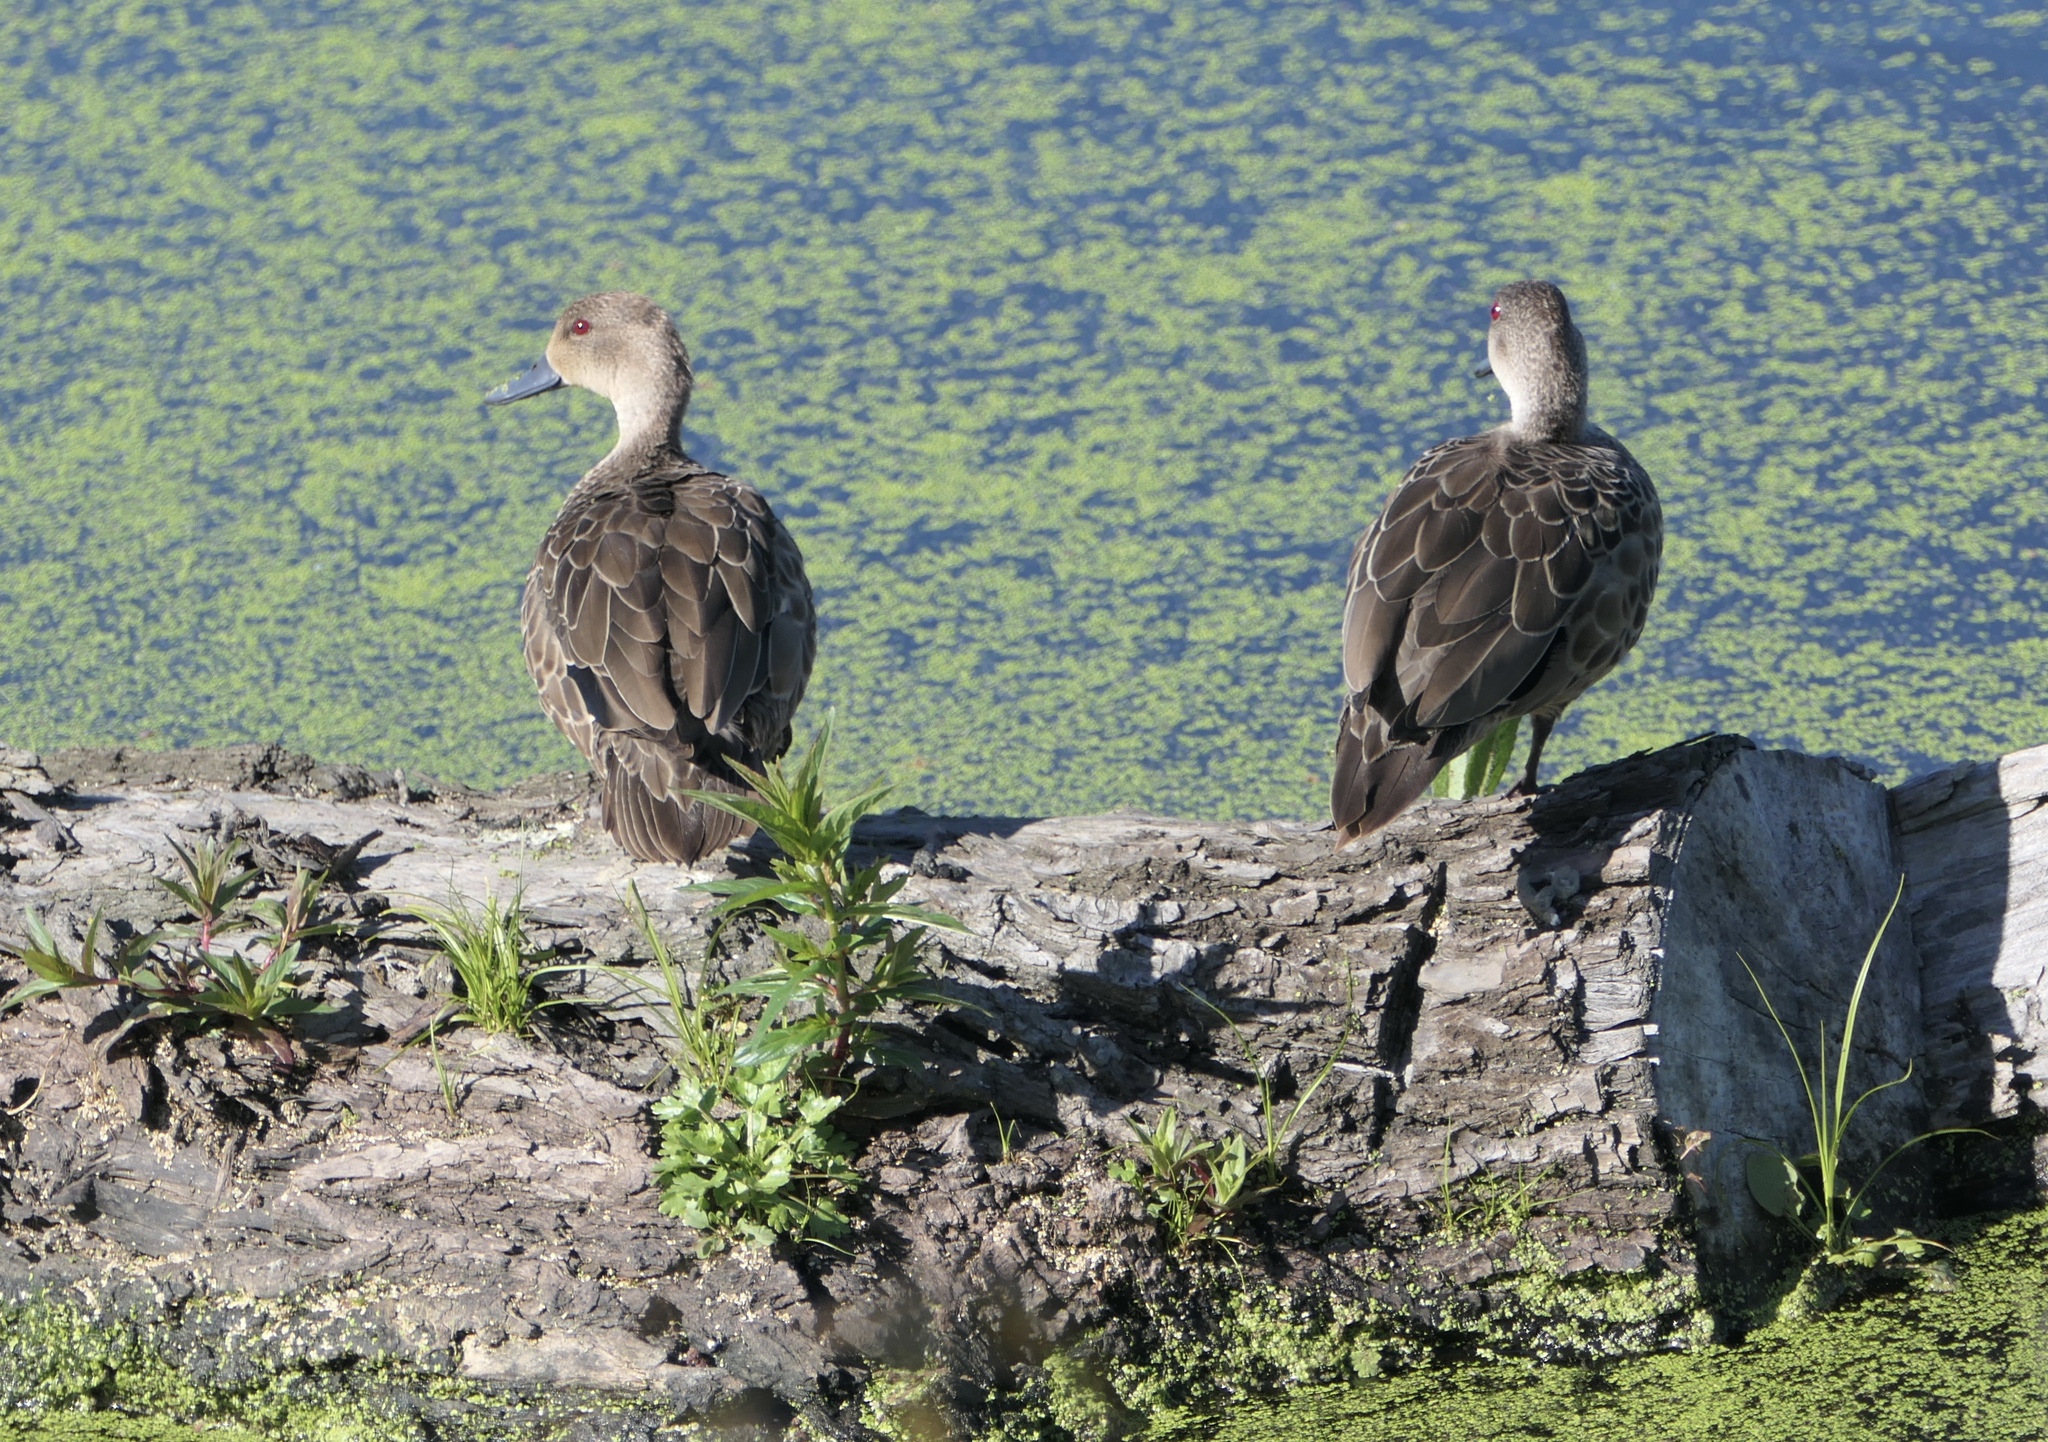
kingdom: Animalia
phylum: Chordata
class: Aves
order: Anseriformes
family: Anatidae
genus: Anas
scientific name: Anas gracilis
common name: Grey teal
